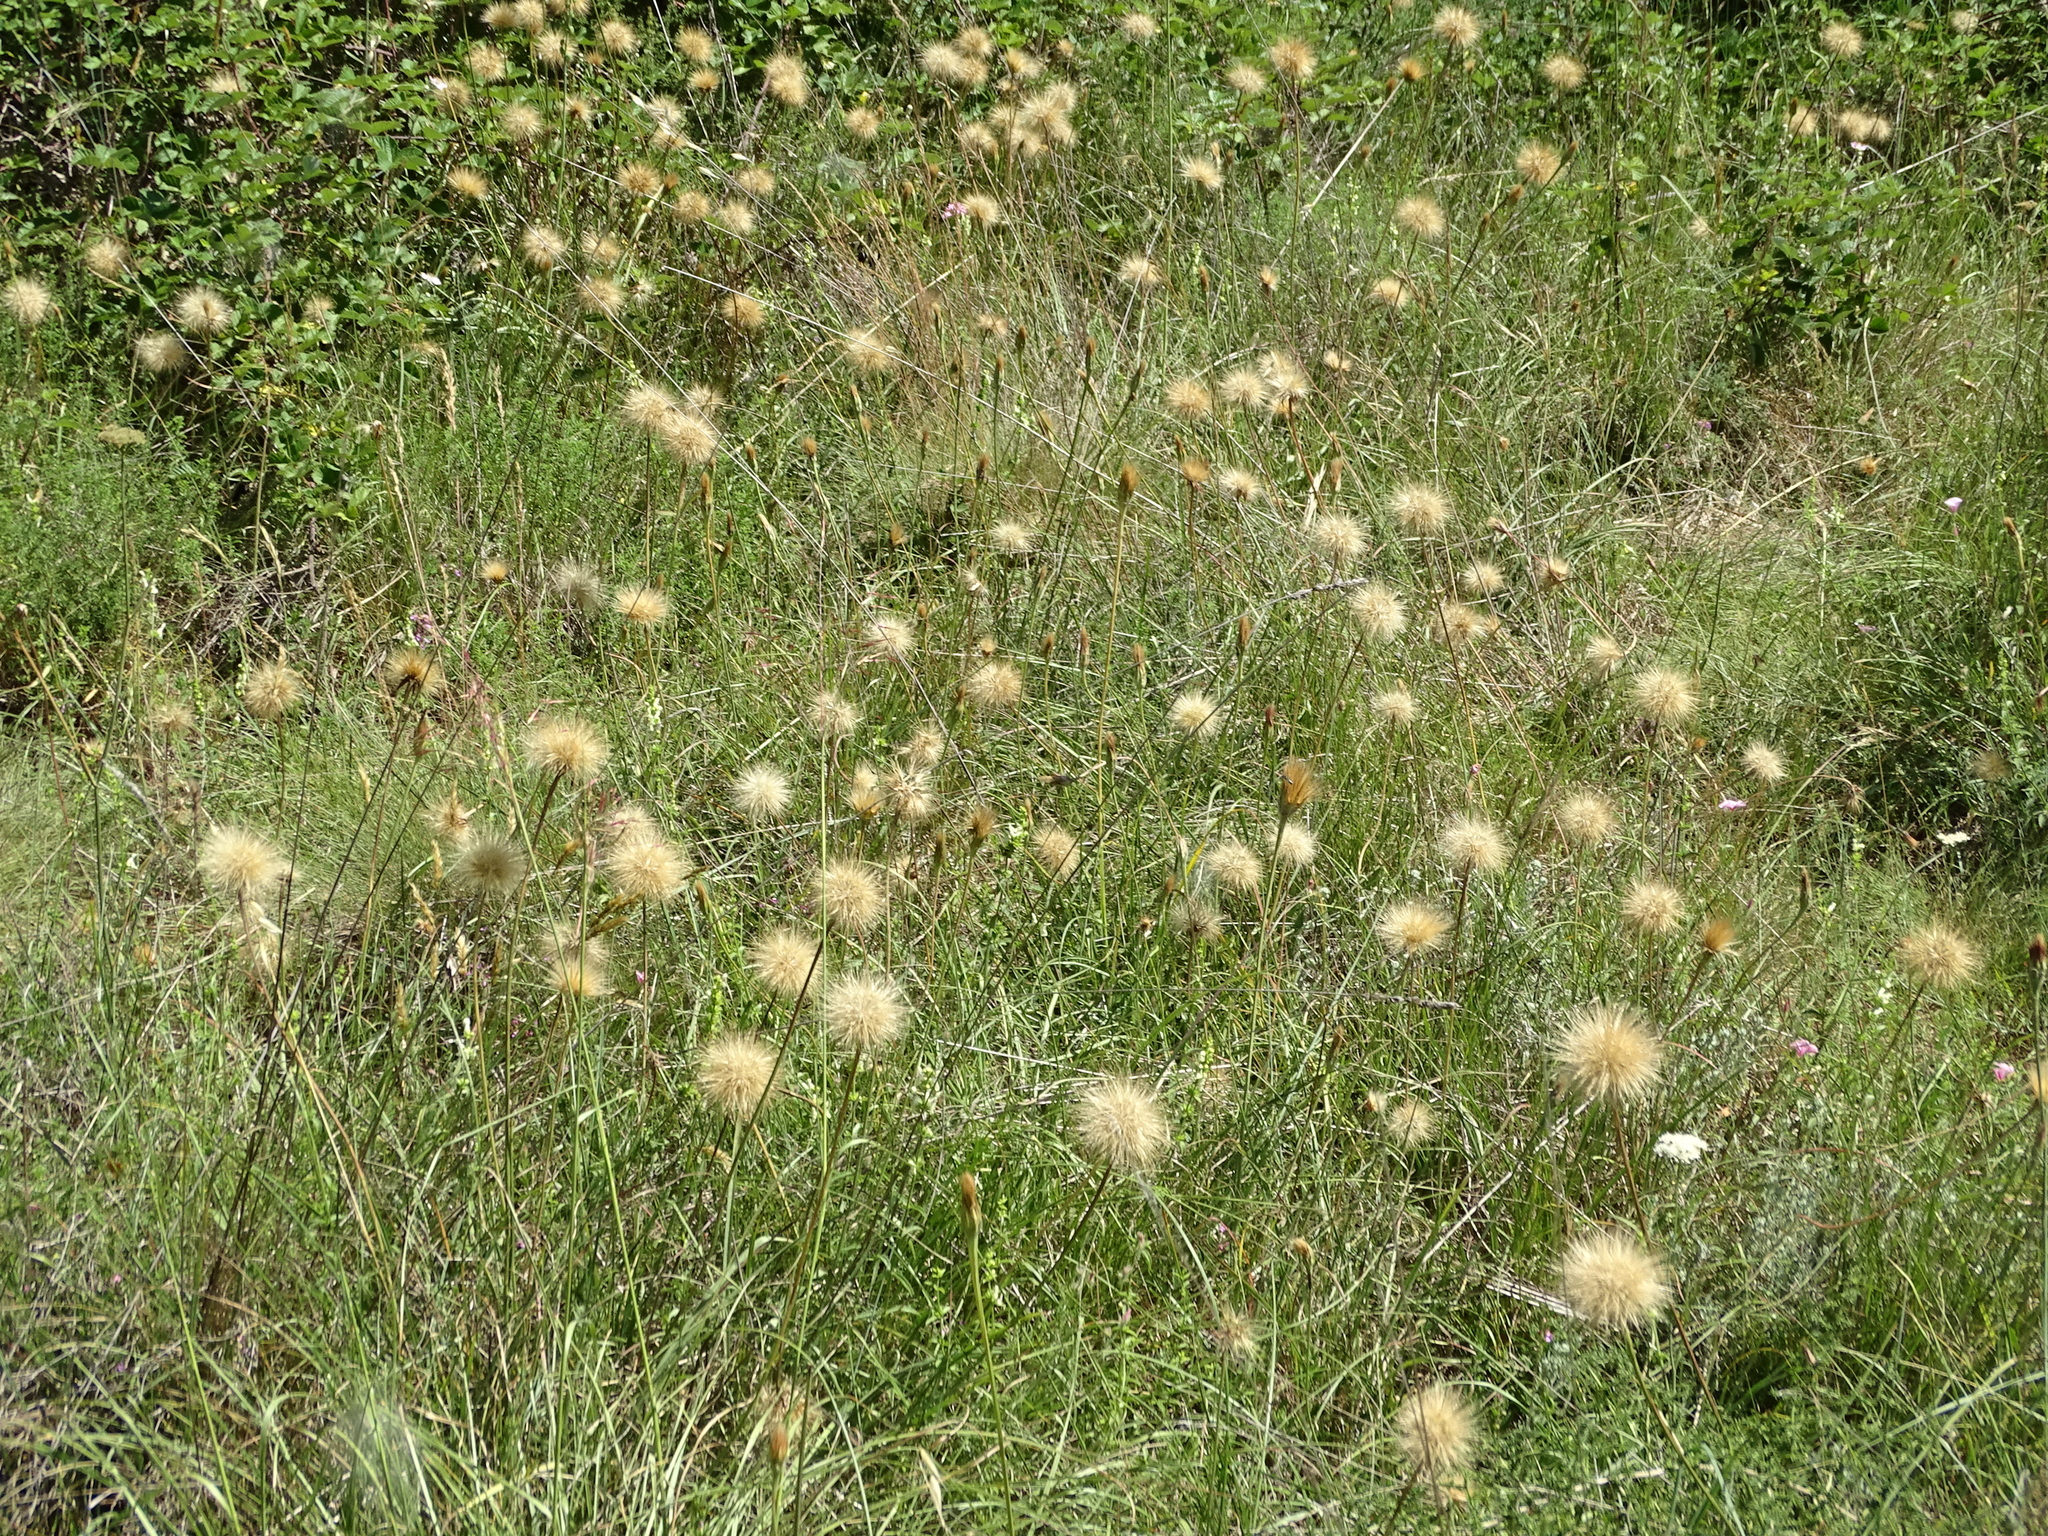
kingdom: Plantae
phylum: Tracheophyta
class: Magnoliopsida
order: Asterales
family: Asteraceae
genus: Gelasia
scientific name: Gelasia villosa
